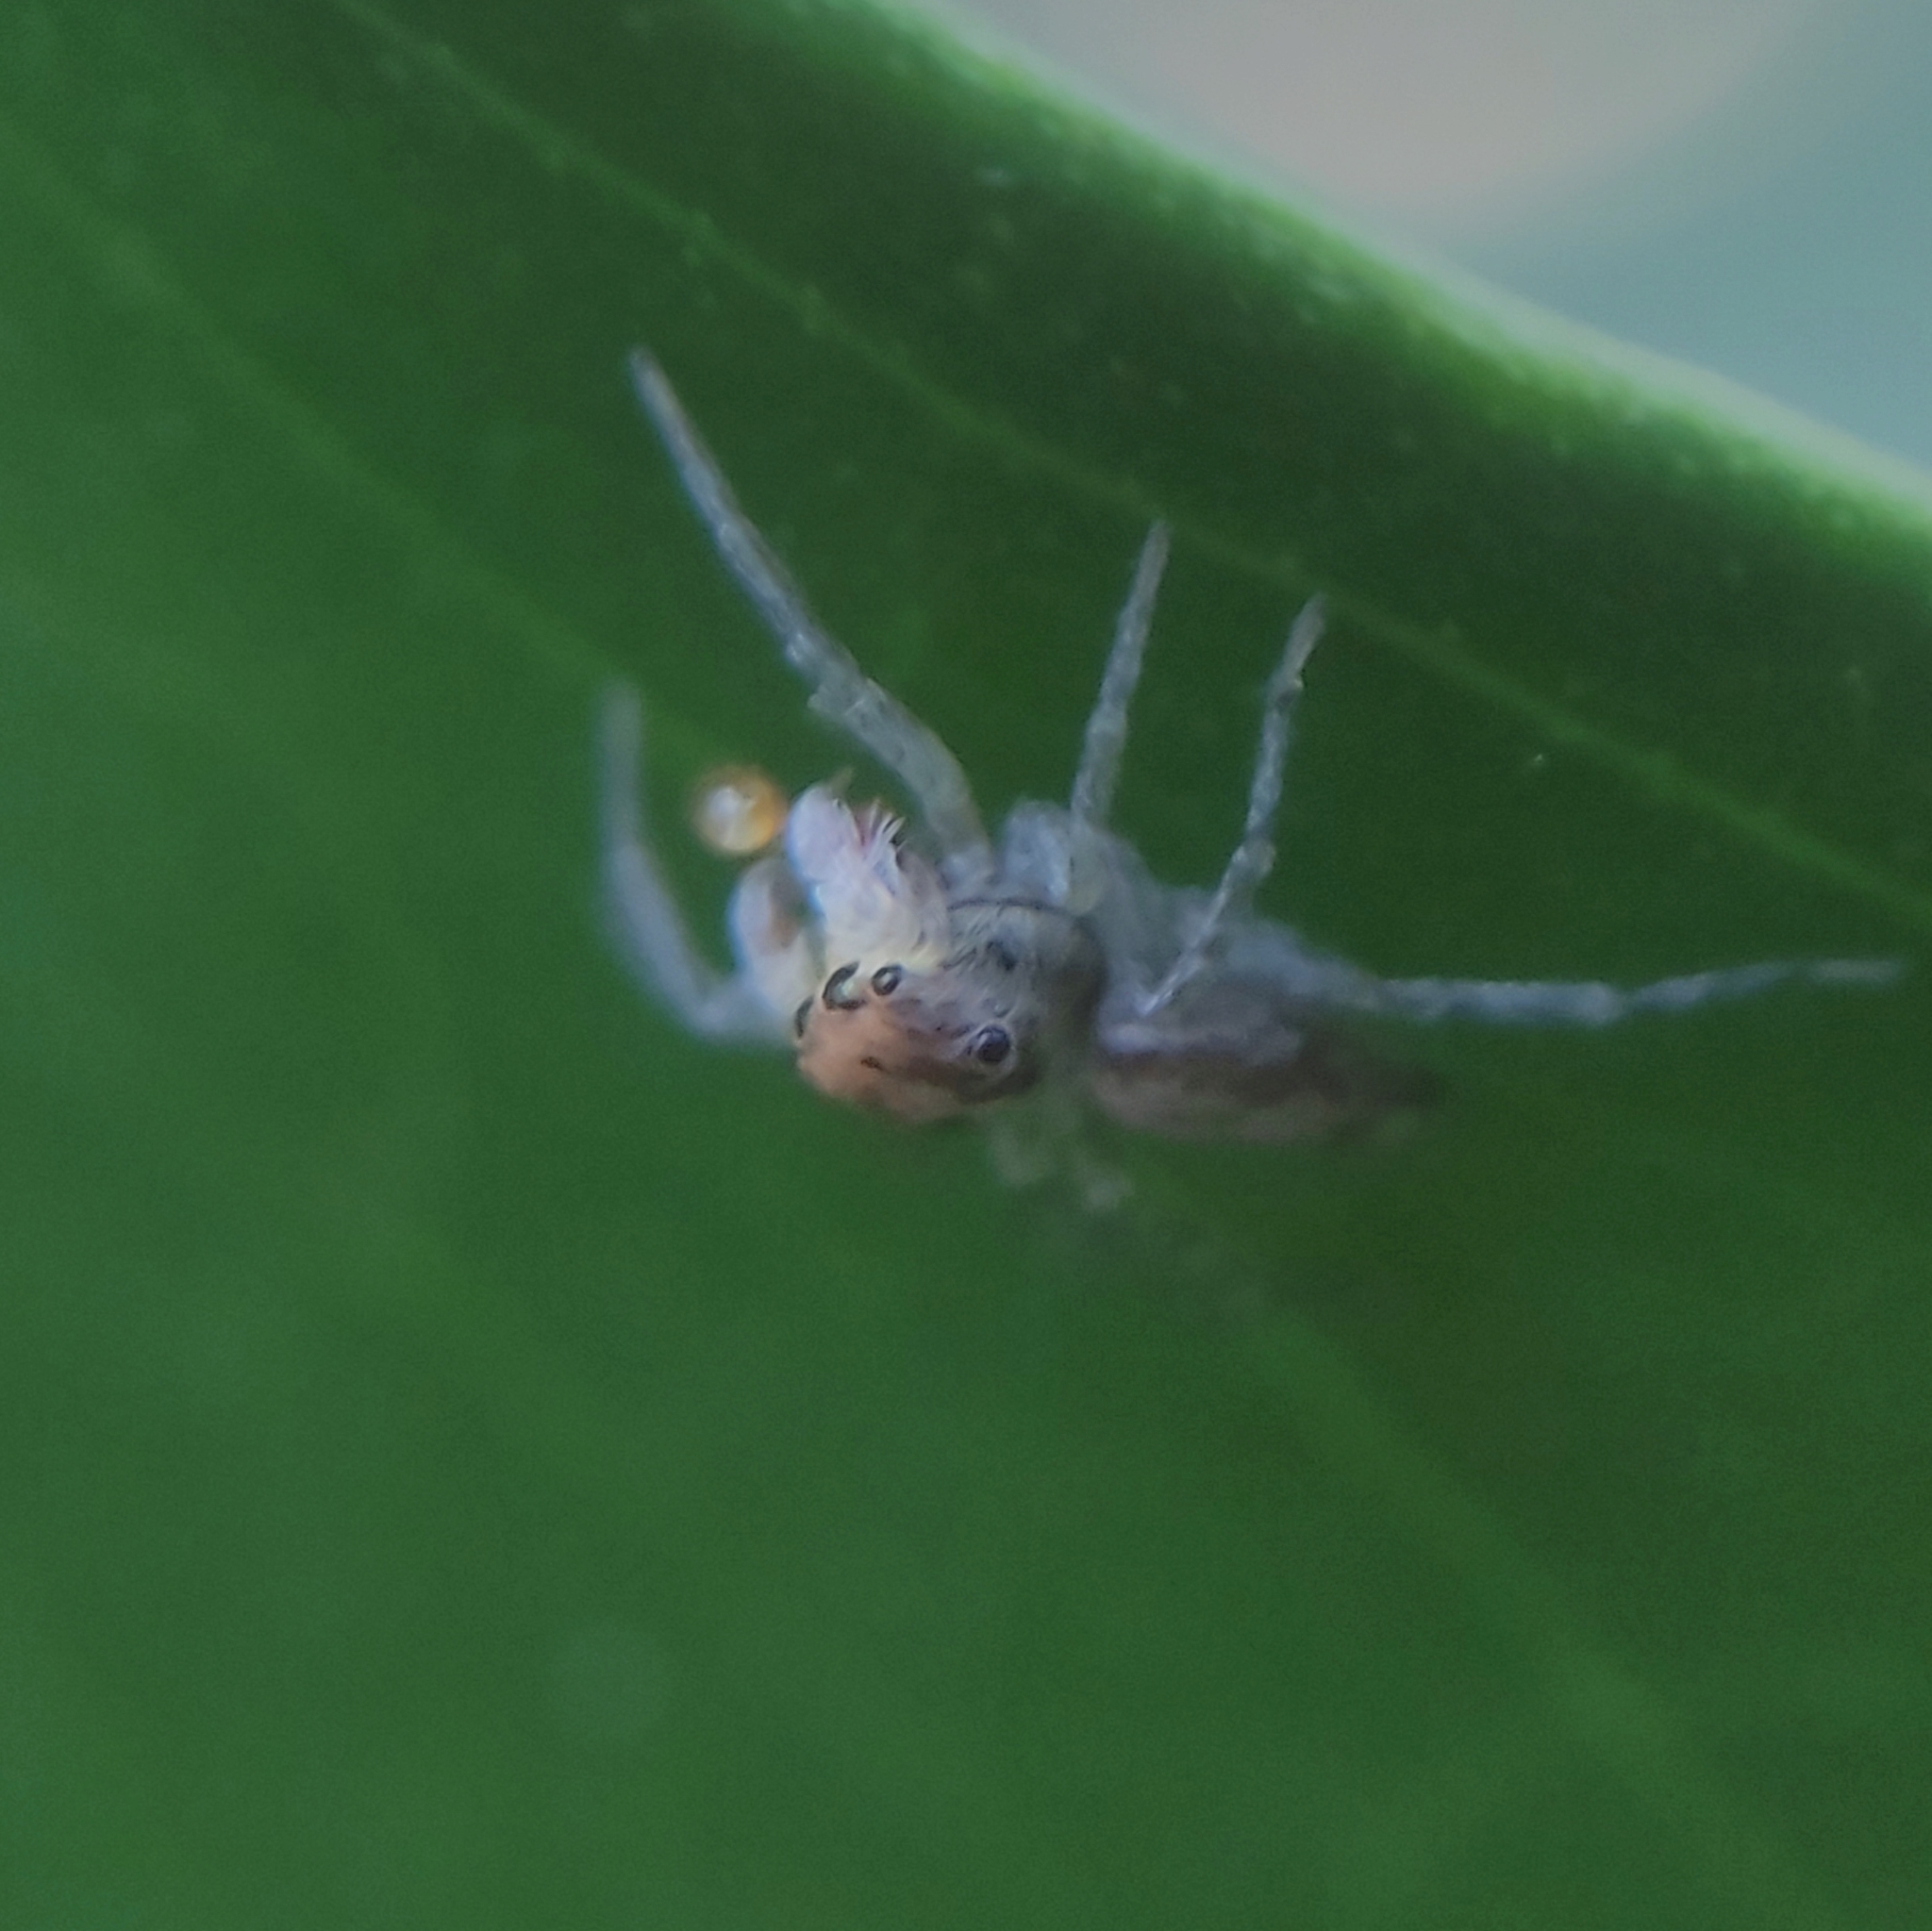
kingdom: Animalia
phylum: Arthropoda
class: Arachnida
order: Araneae
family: Salticidae
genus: Maeota
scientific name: Maeota flava
